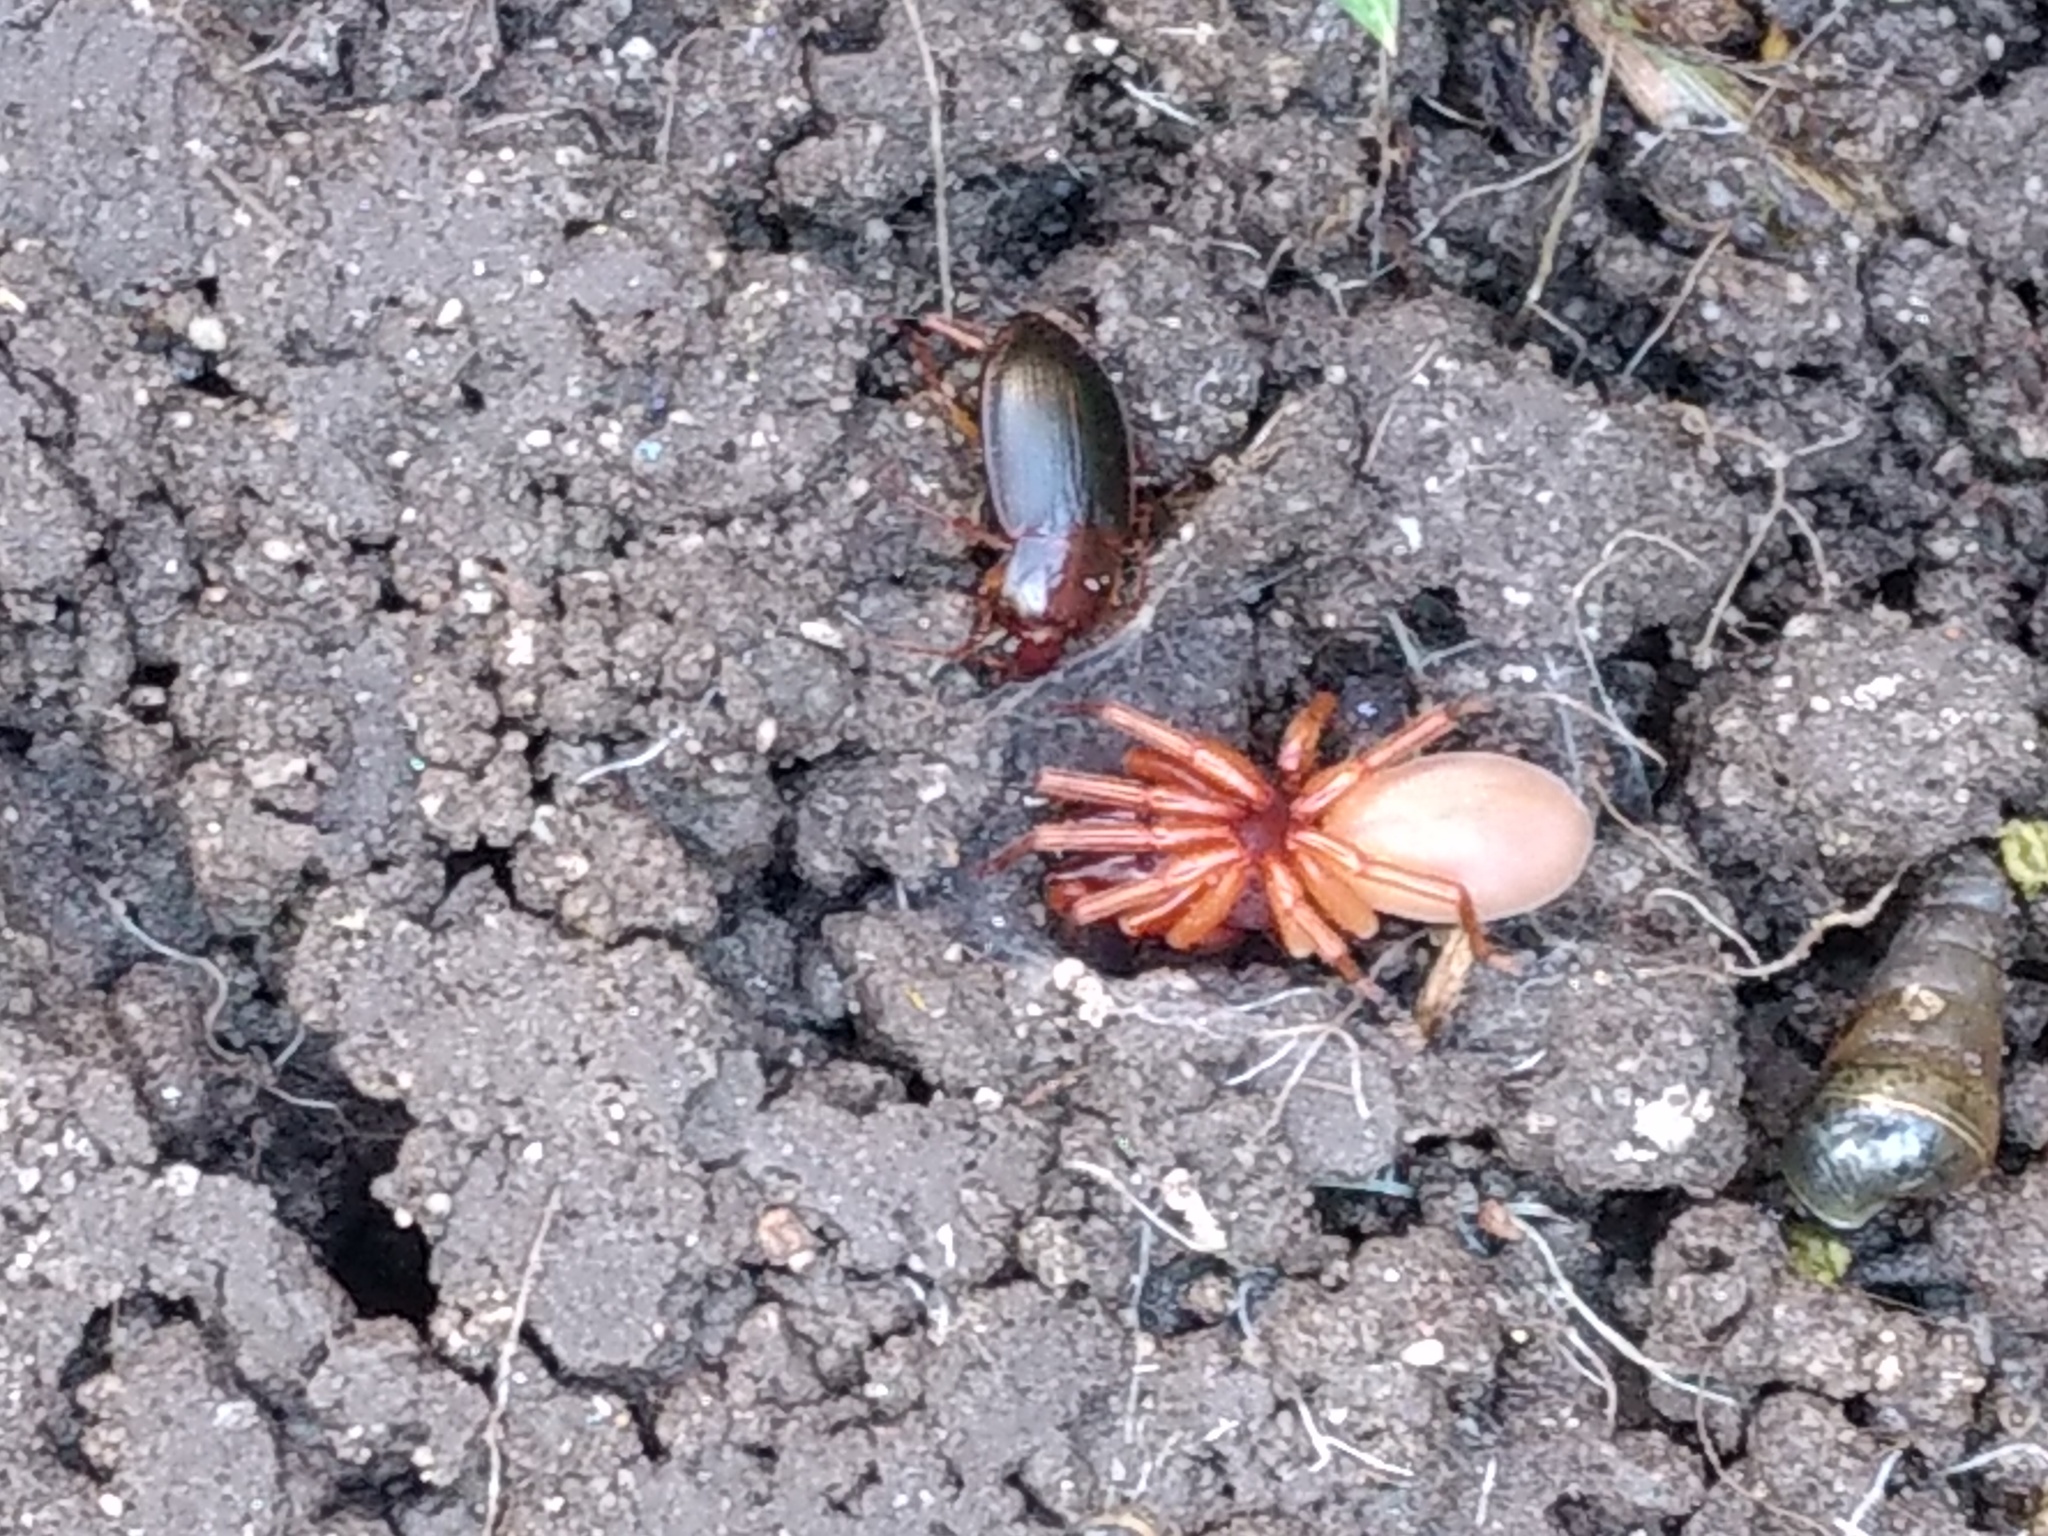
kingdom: Animalia
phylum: Arthropoda
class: Arachnida
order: Araneae
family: Dysderidae
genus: Dysdera
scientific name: Dysdera crocata
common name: Woodlouse spider
